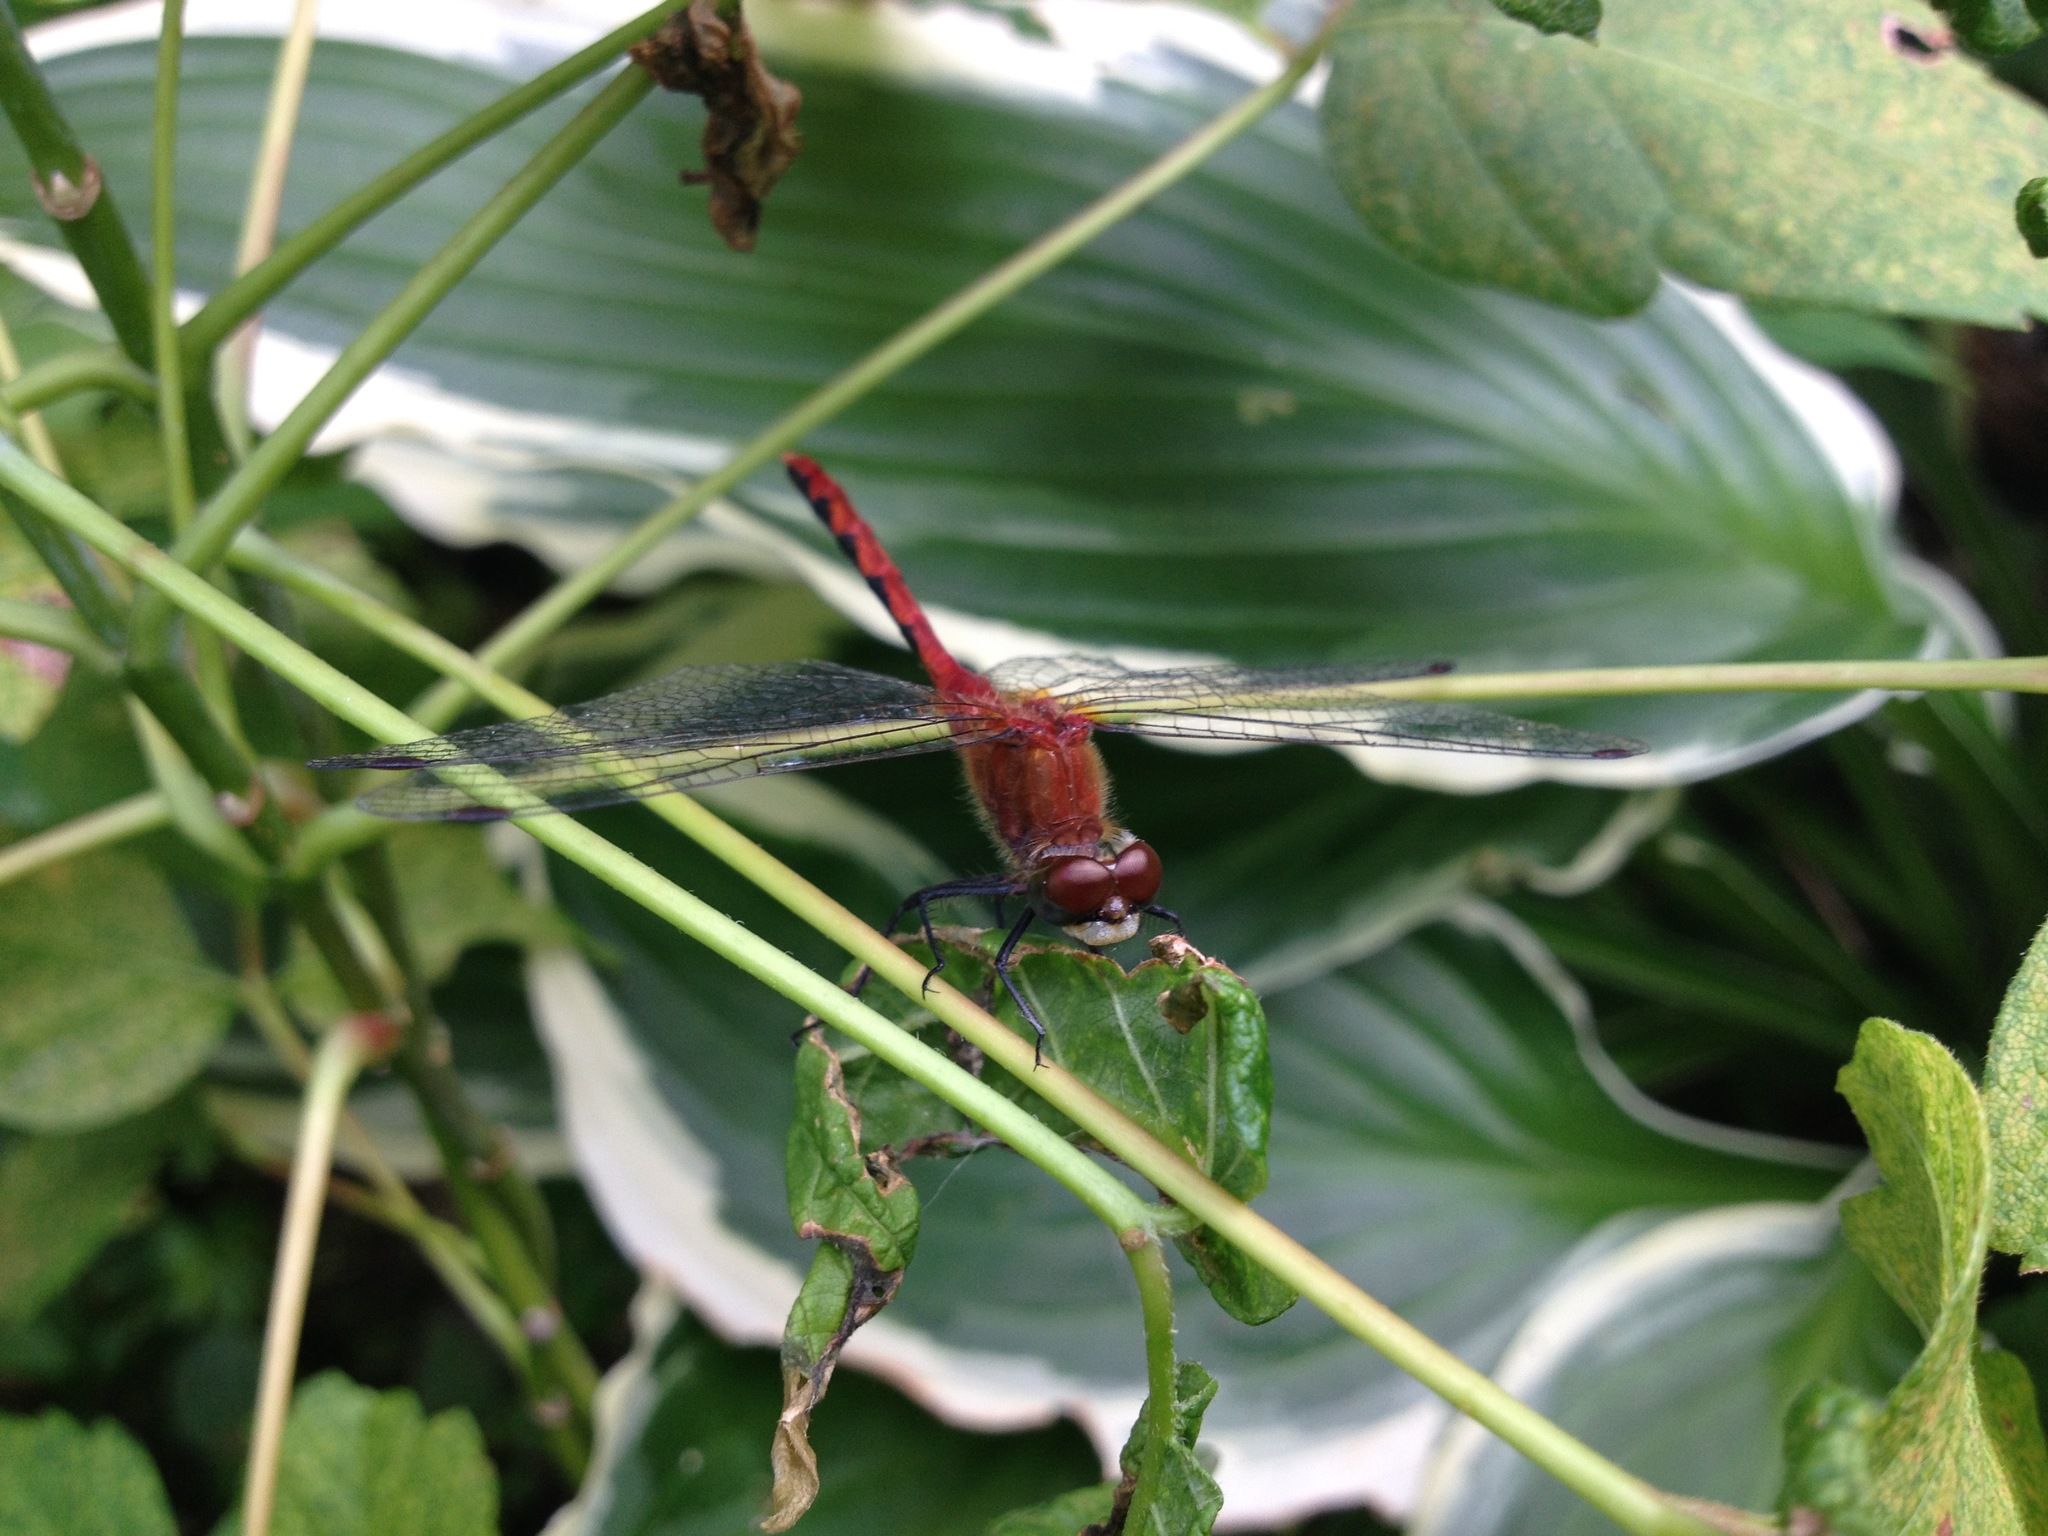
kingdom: Animalia
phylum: Arthropoda
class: Insecta
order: Odonata
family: Libellulidae
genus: Sympetrum
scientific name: Sympetrum obtrusum
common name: White-faced meadowhawk
